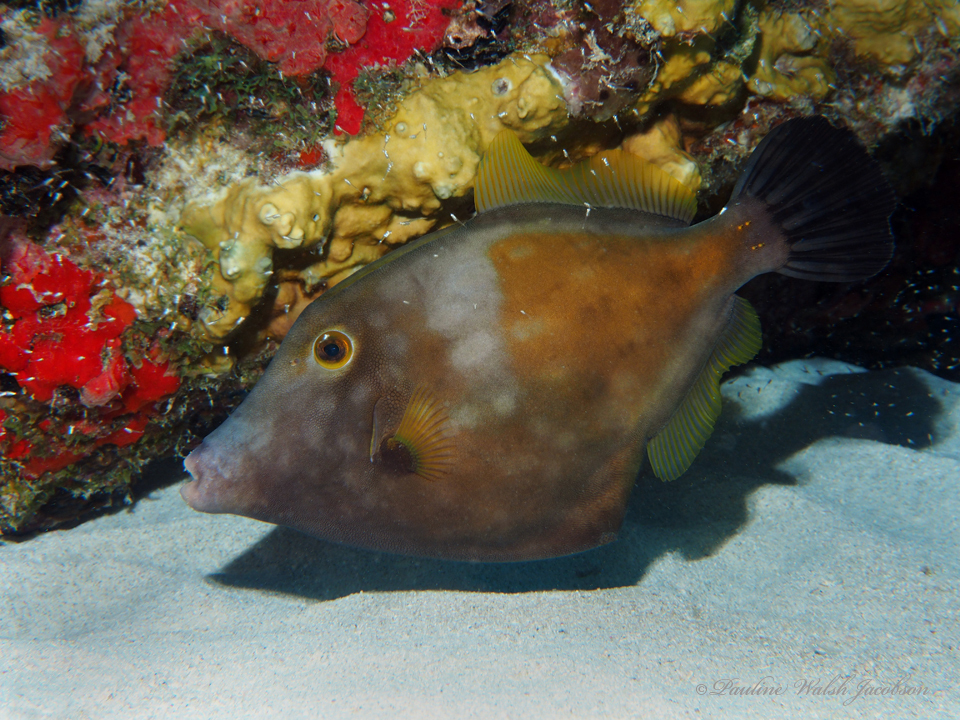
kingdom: Animalia
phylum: Chordata
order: Tetraodontiformes
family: Monacanthidae
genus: Cantherhines
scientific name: Cantherhines macrocerus
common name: Whitespotted filefish
